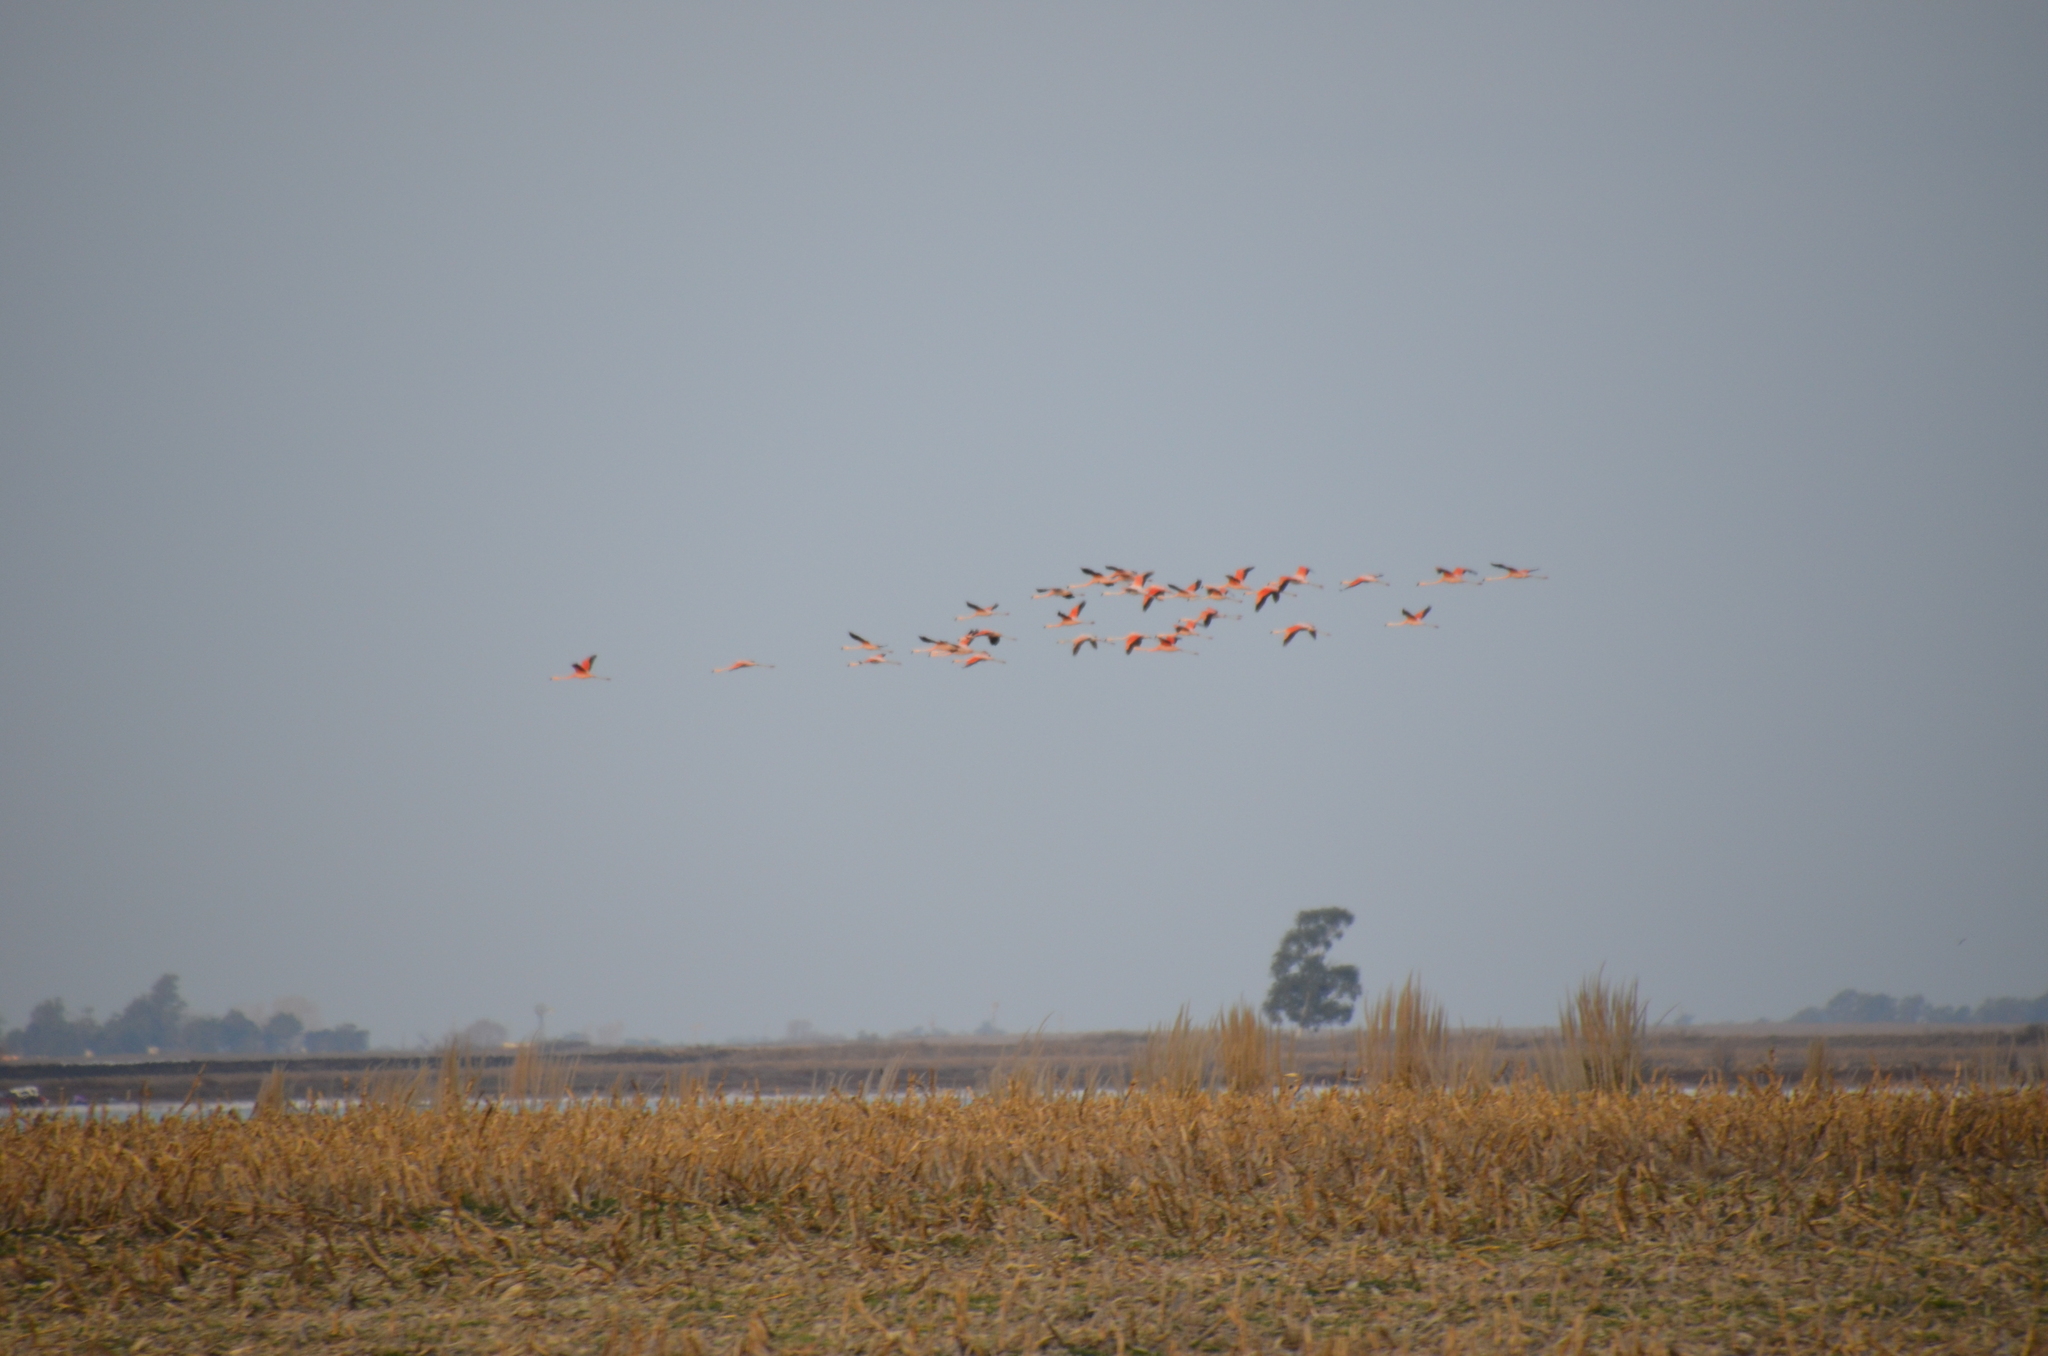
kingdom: Animalia
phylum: Chordata
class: Aves
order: Phoenicopteriformes
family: Phoenicopteridae
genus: Phoenicopterus
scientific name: Phoenicopterus chilensis
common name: Chilean flamingo
